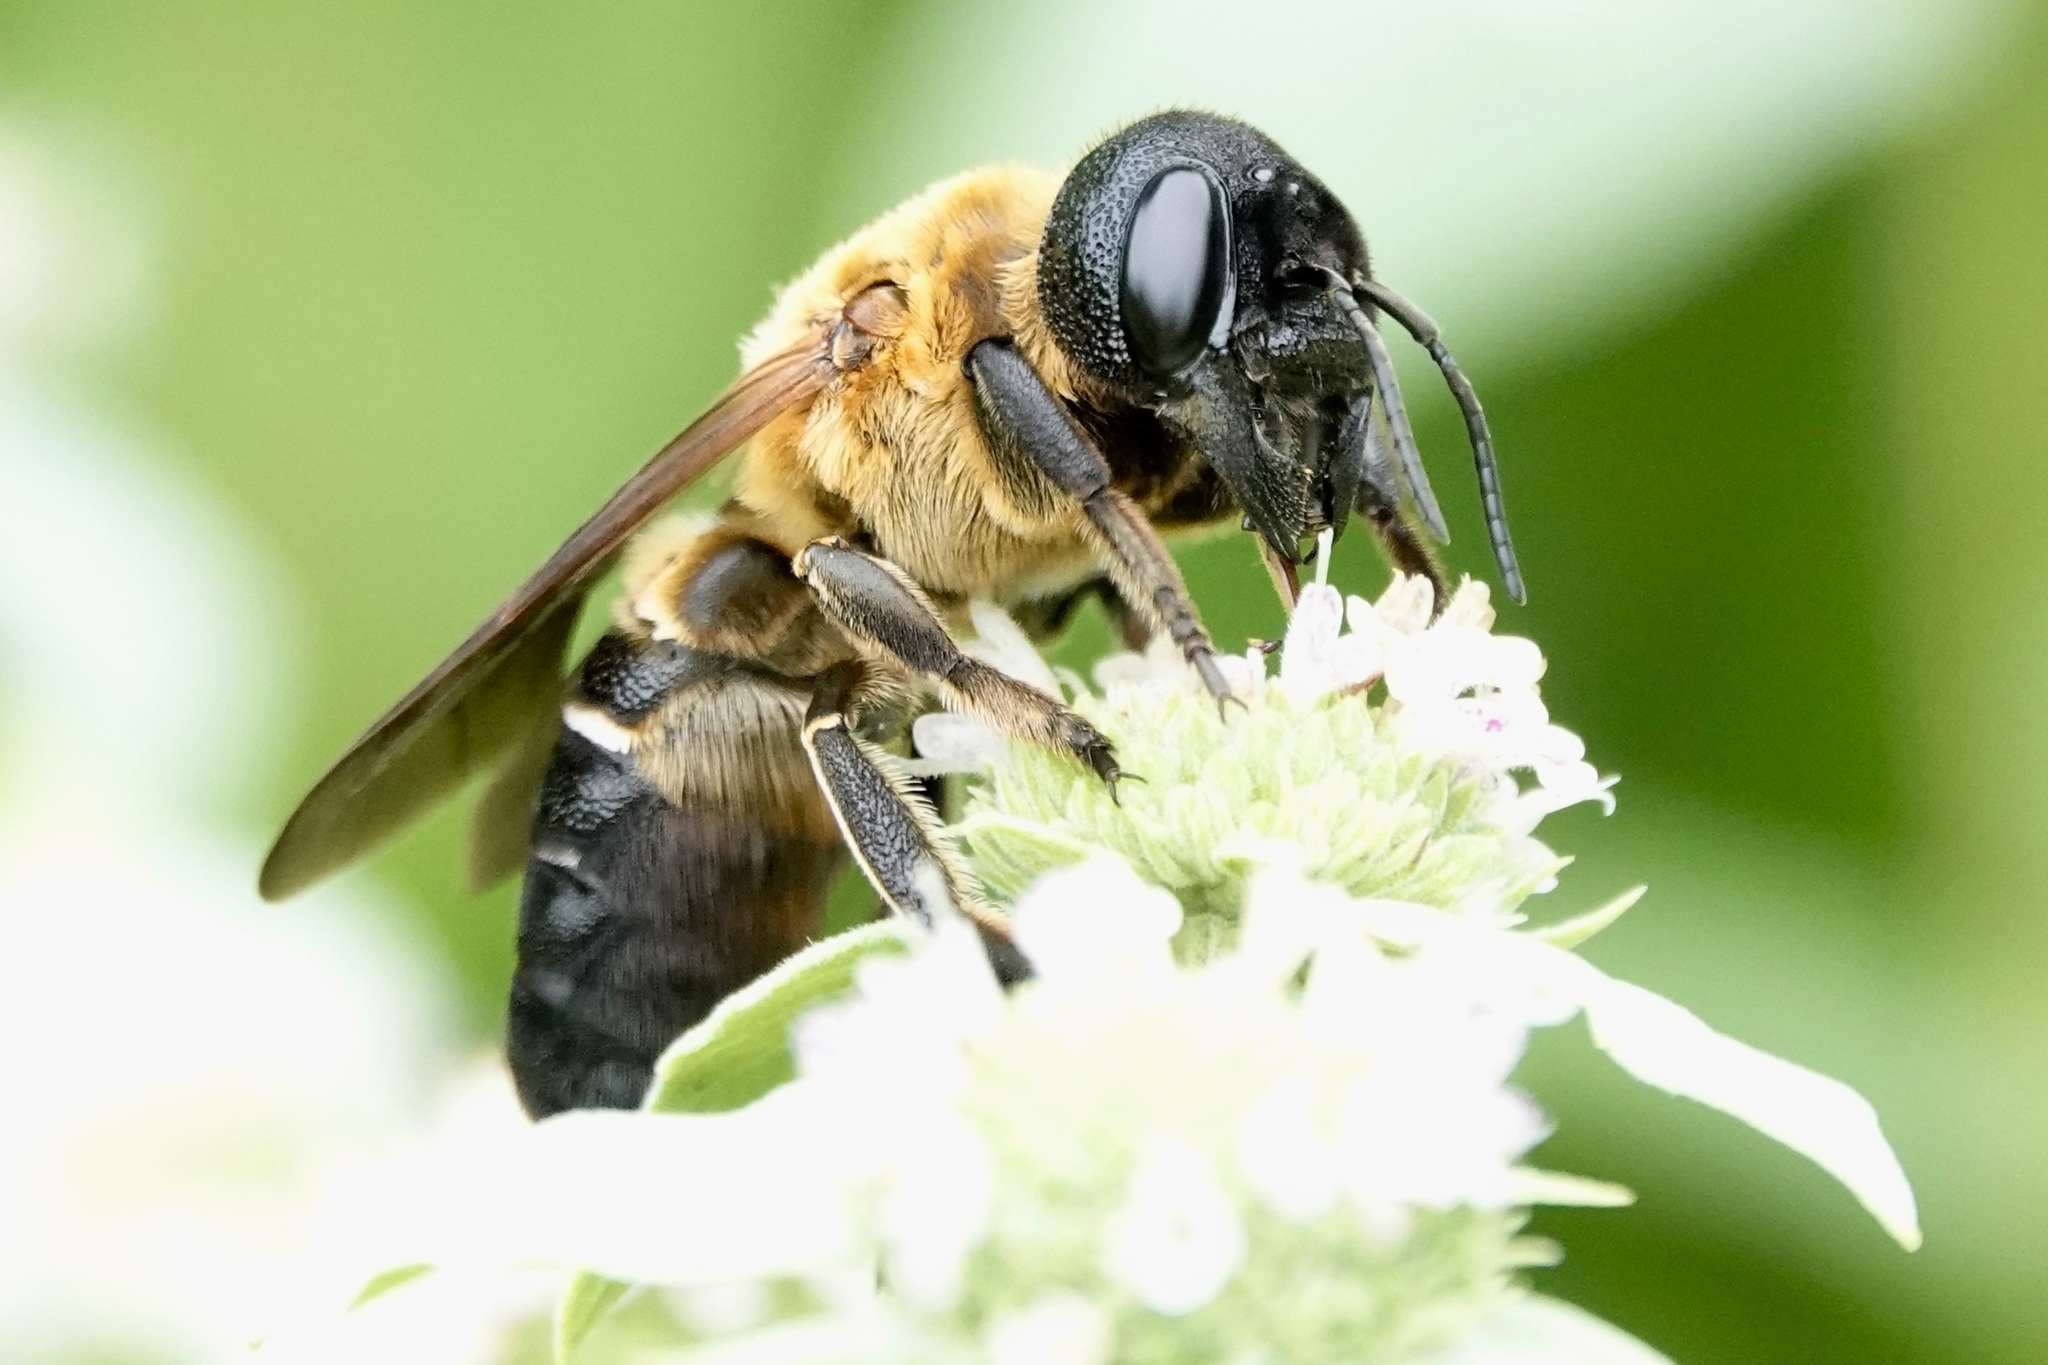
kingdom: Animalia
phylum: Arthropoda
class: Insecta
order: Hymenoptera
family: Megachilidae
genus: Megachile
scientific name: Megachile sculpturalis
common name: Sculptured resin bee
